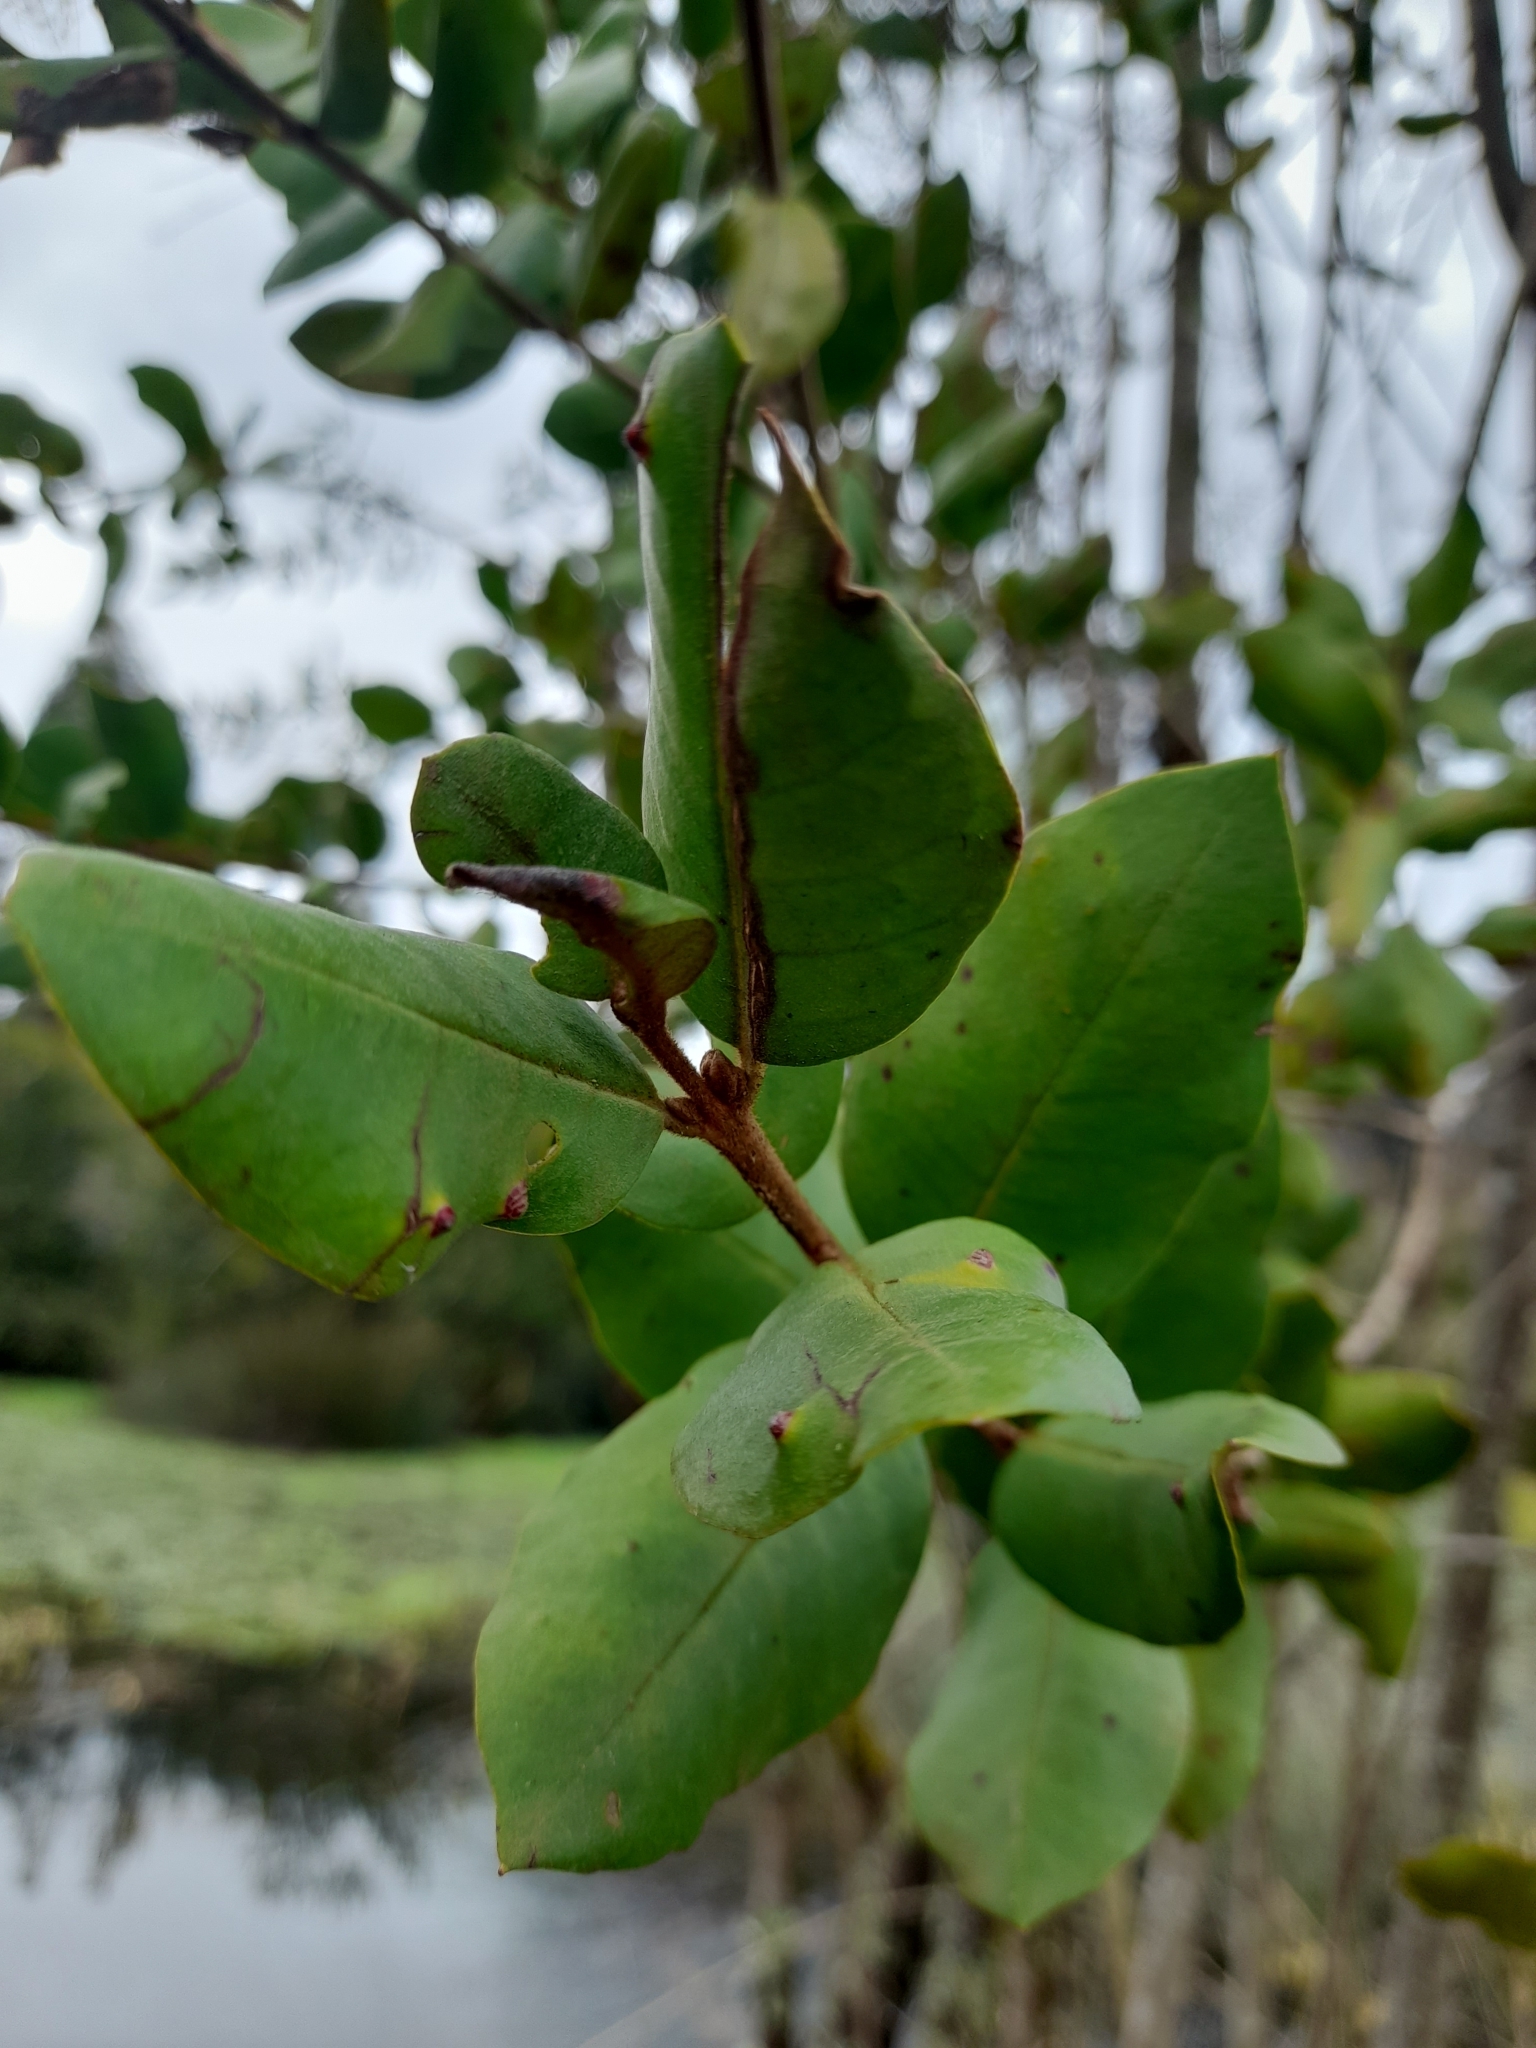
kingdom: Plantae
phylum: Tracheophyta
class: Magnoliopsida
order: Myrtales
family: Myrtaceae
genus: Myrceugenia
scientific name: Myrceugenia exsucca
